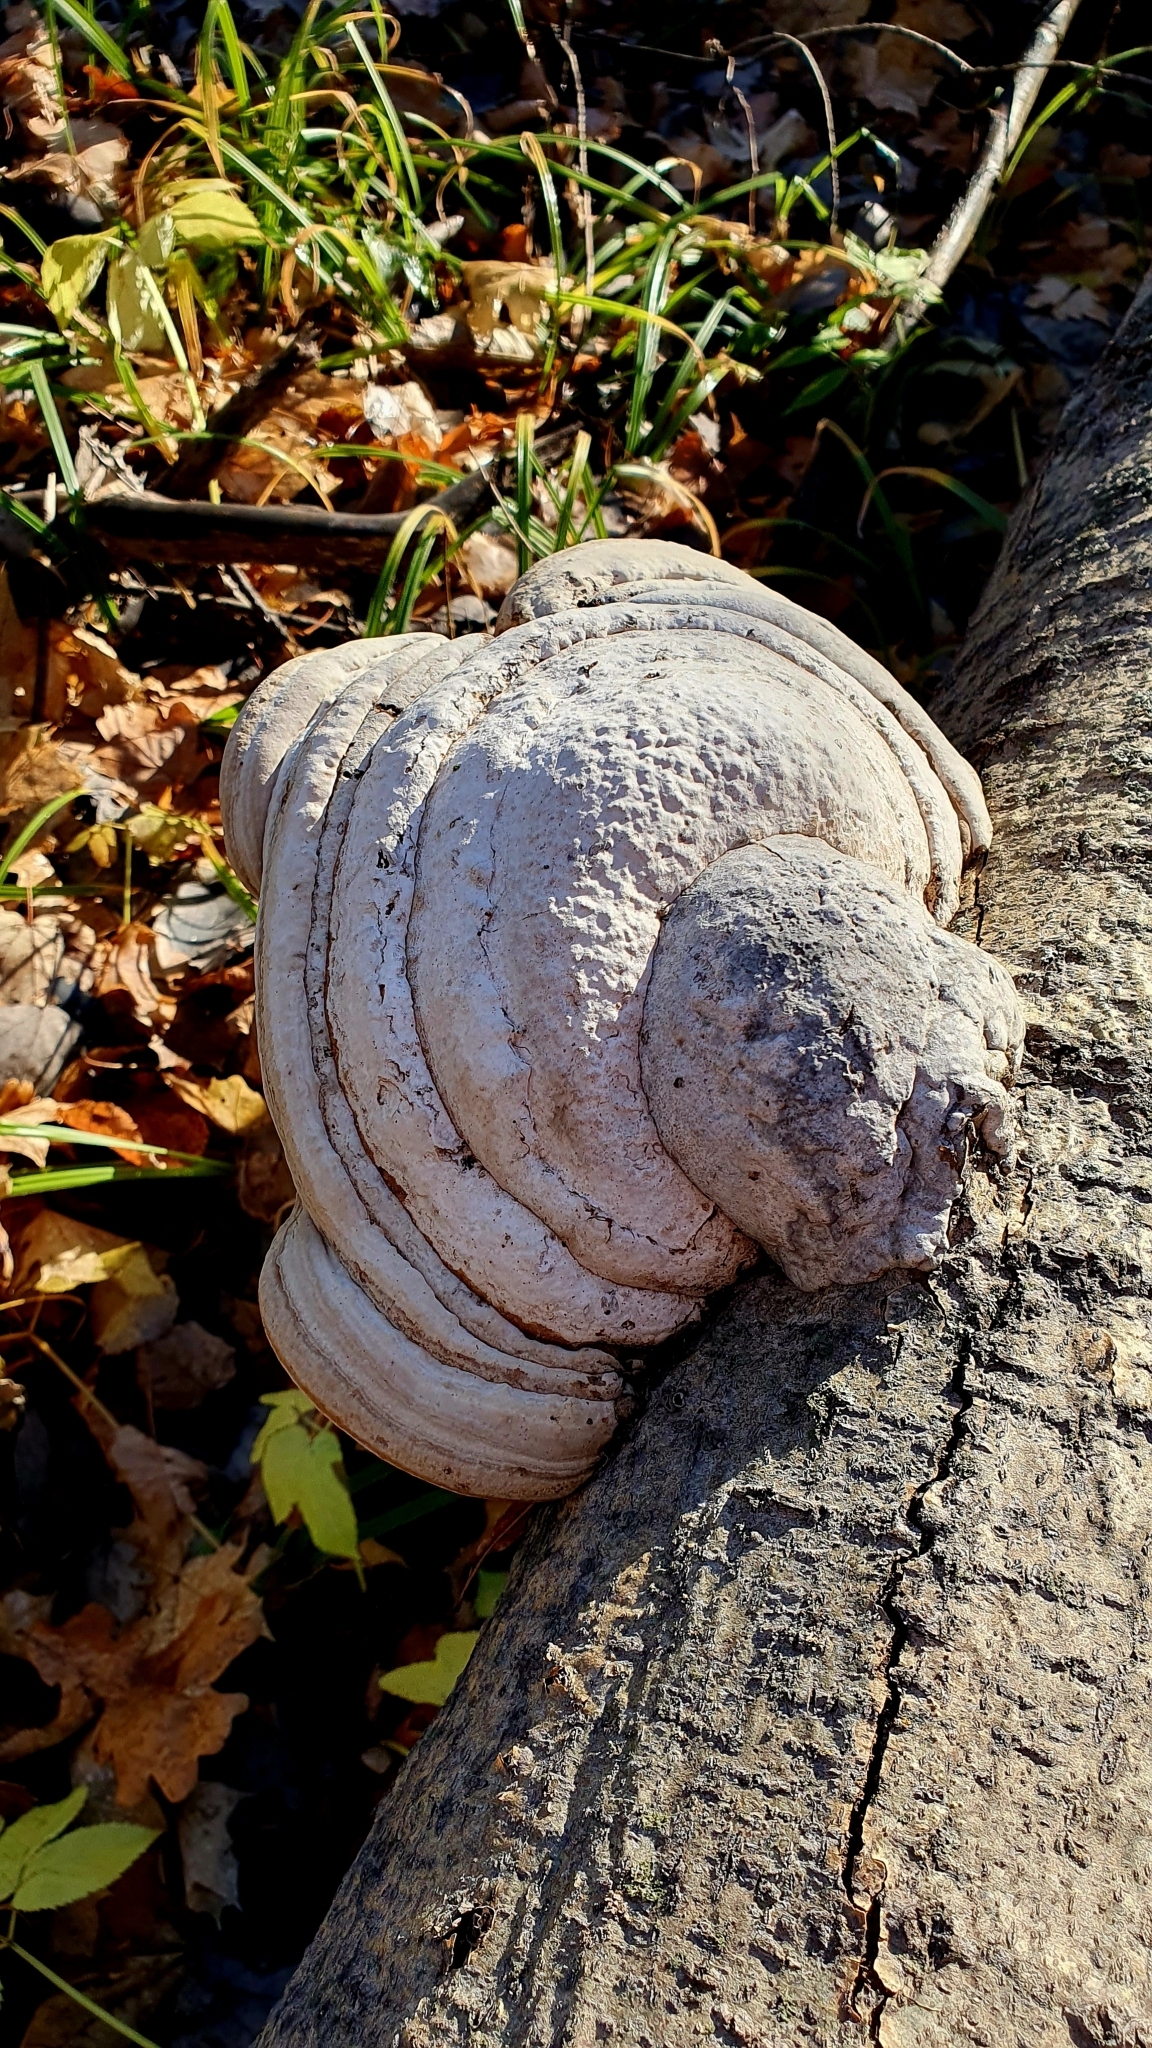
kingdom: Fungi
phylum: Basidiomycota
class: Agaricomycetes
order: Polyporales
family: Polyporaceae
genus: Fomes
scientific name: Fomes fomentarius
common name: Hoof fungus
